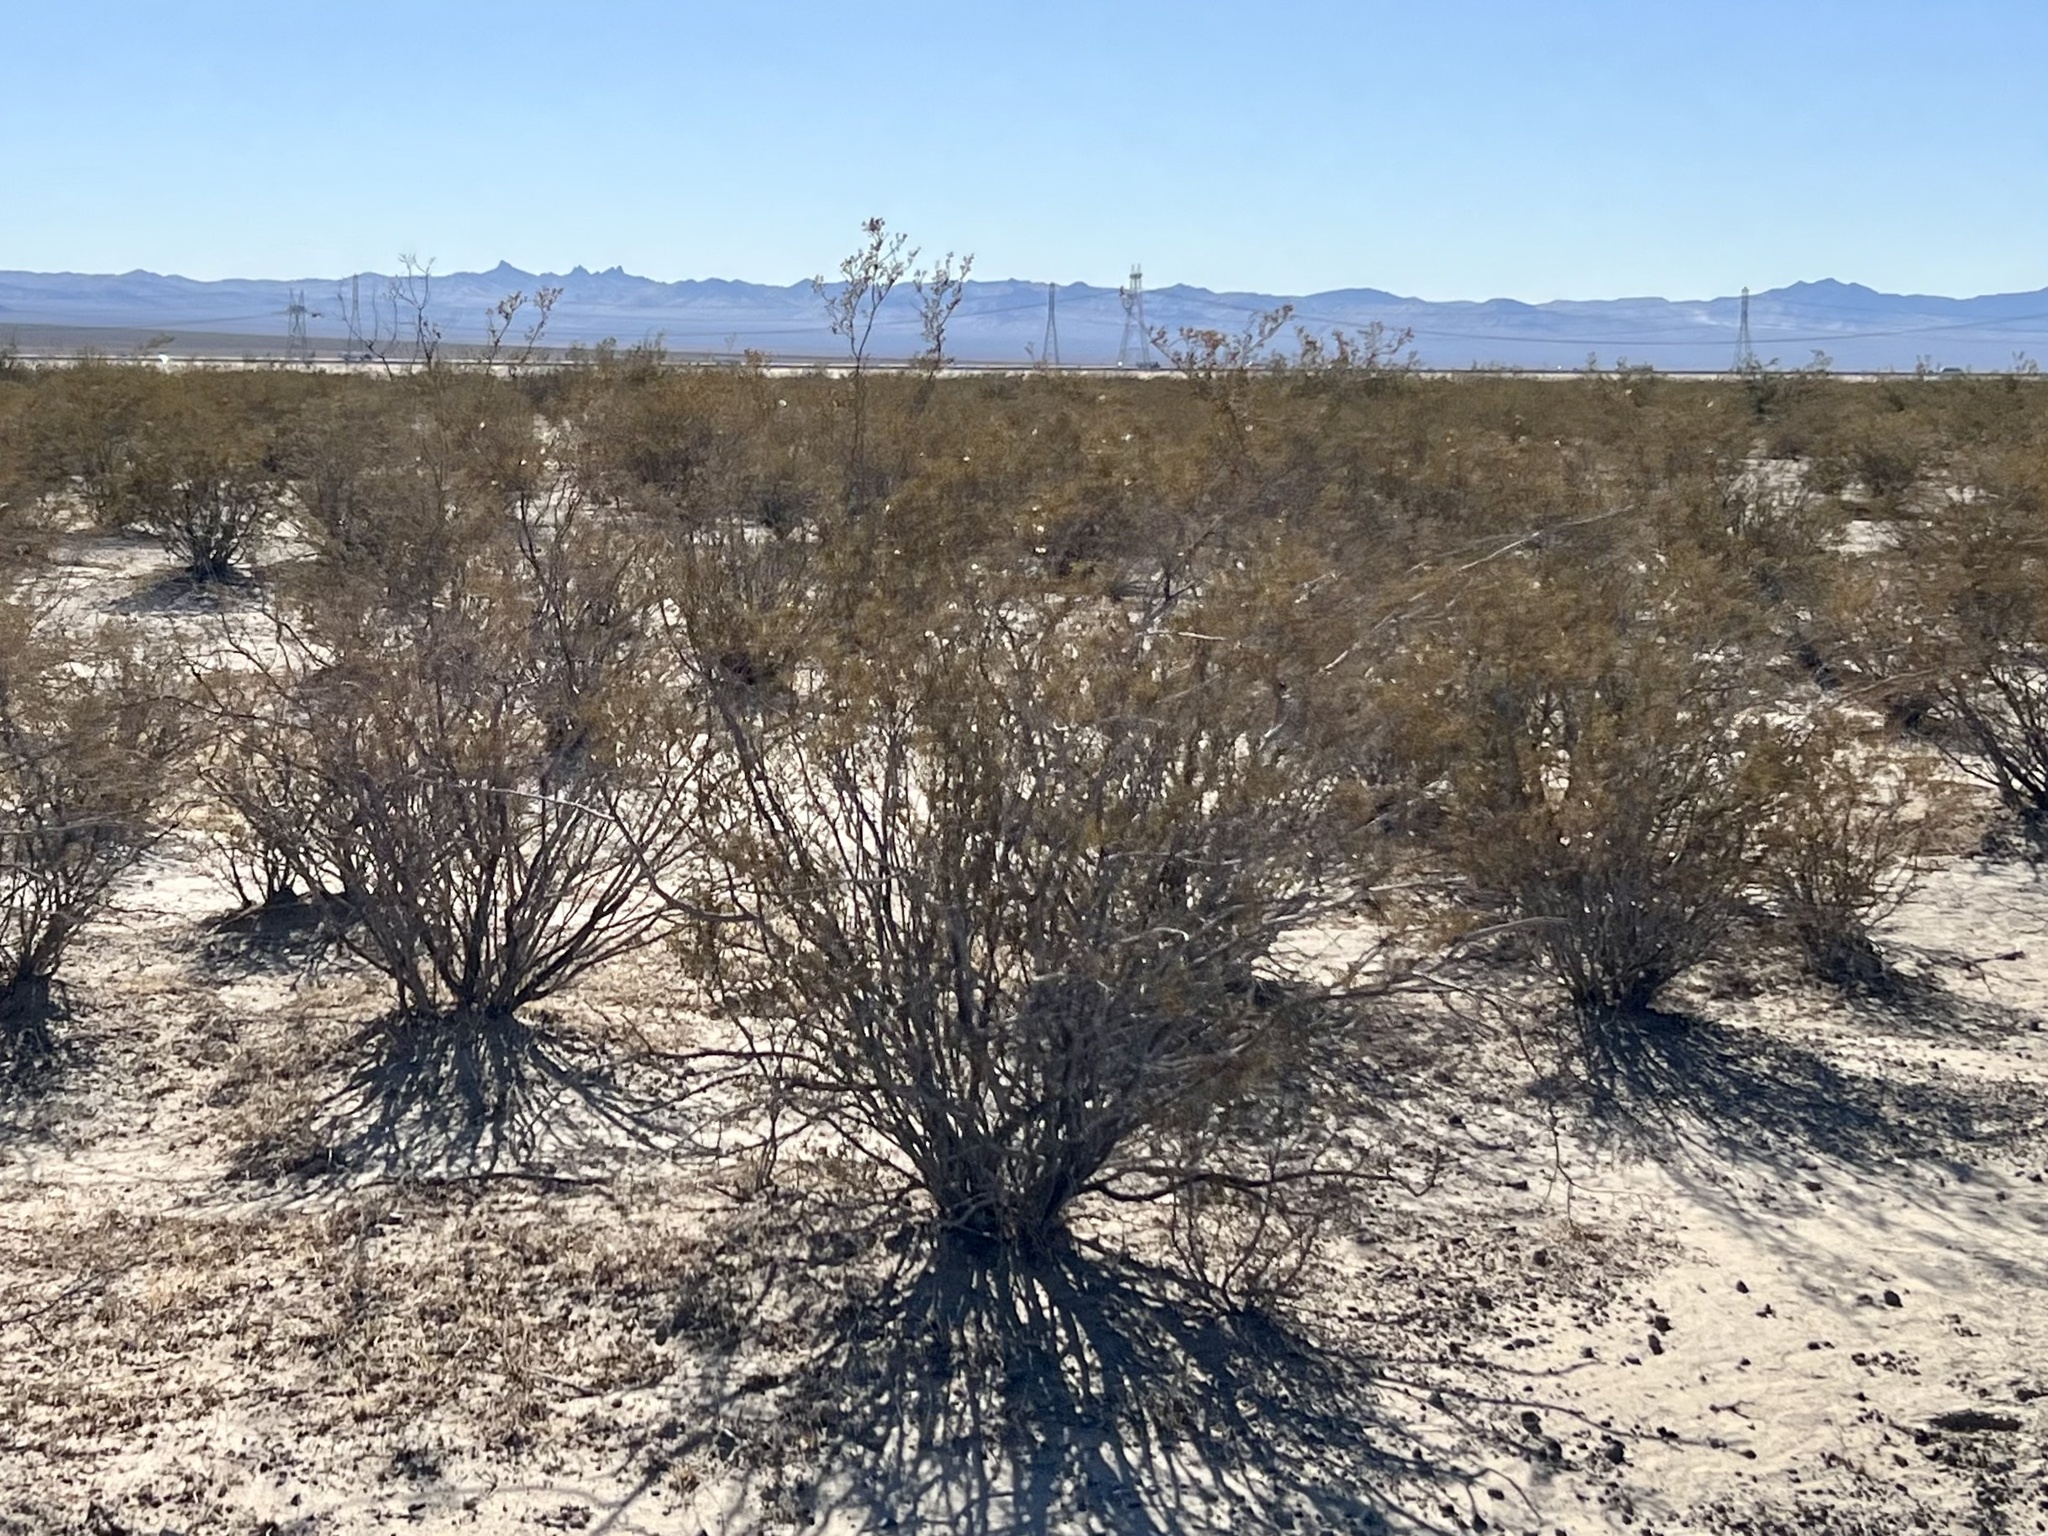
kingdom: Plantae
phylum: Tracheophyta
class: Magnoliopsida
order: Zygophyllales
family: Zygophyllaceae
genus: Larrea
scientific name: Larrea tridentata
